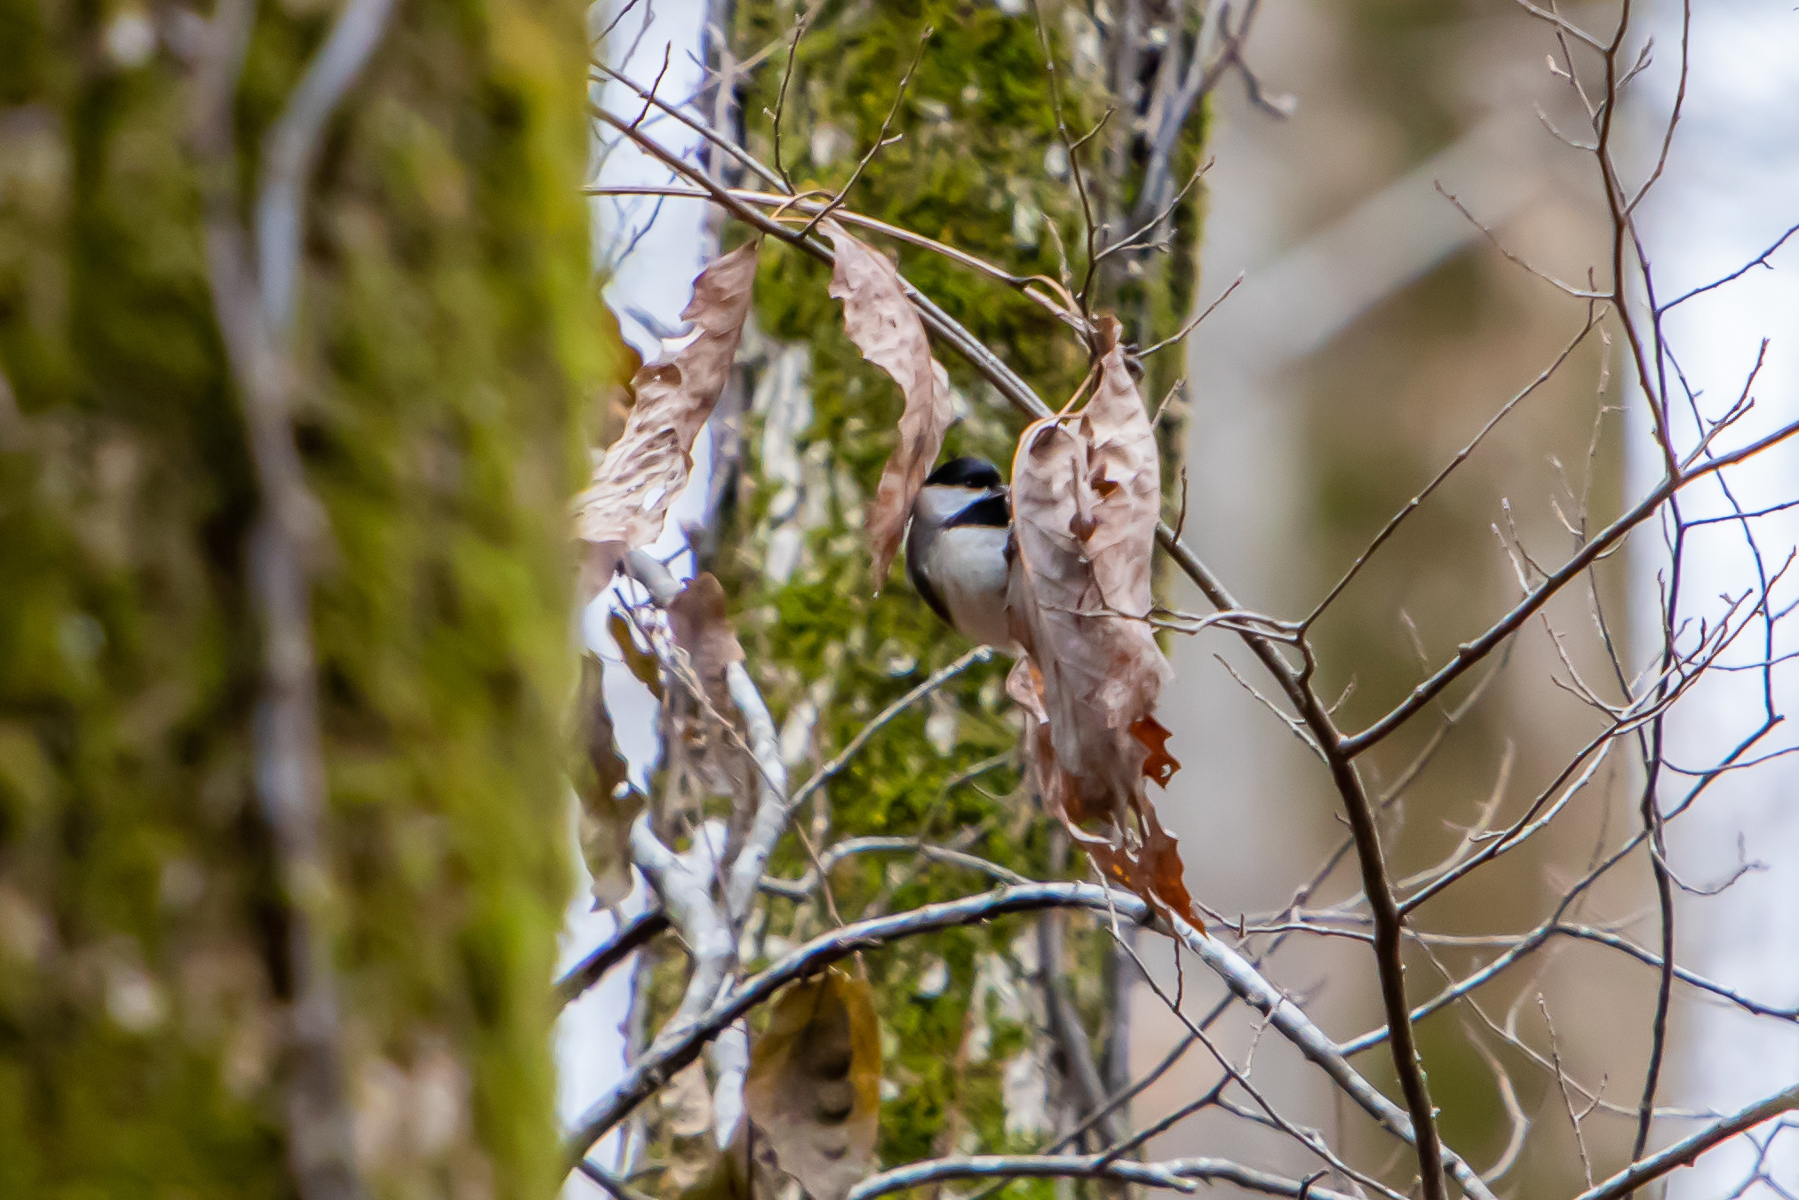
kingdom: Animalia
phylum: Chordata
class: Aves
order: Passeriformes
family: Paridae
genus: Poecile
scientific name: Poecile carolinensis
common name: Carolina chickadee
